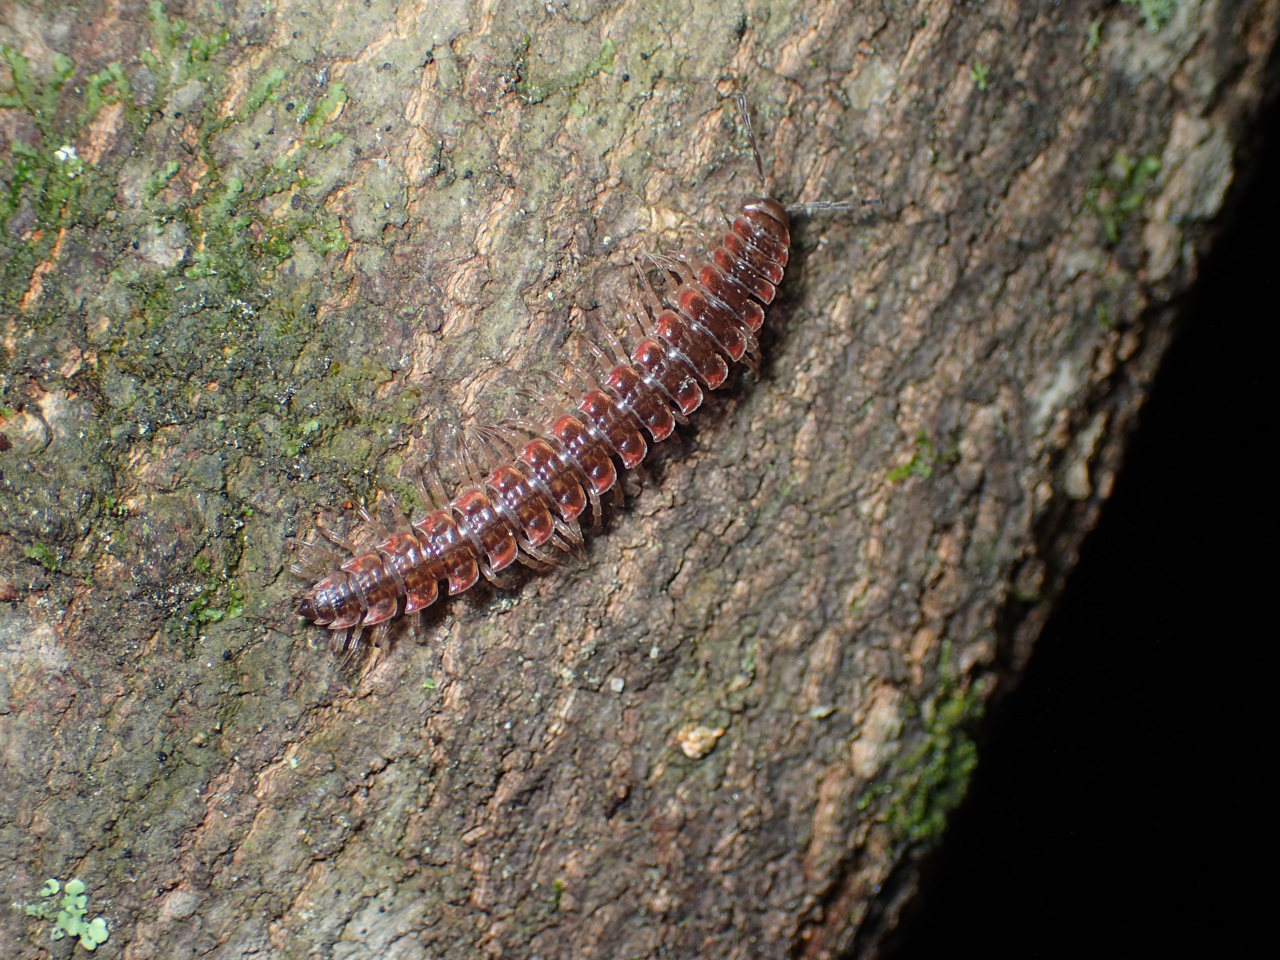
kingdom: Animalia
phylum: Arthropoda
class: Diplopoda
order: Polydesmida
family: Polydesmidae
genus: Pseudopolydesmus
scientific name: Pseudopolydesmus erasus
